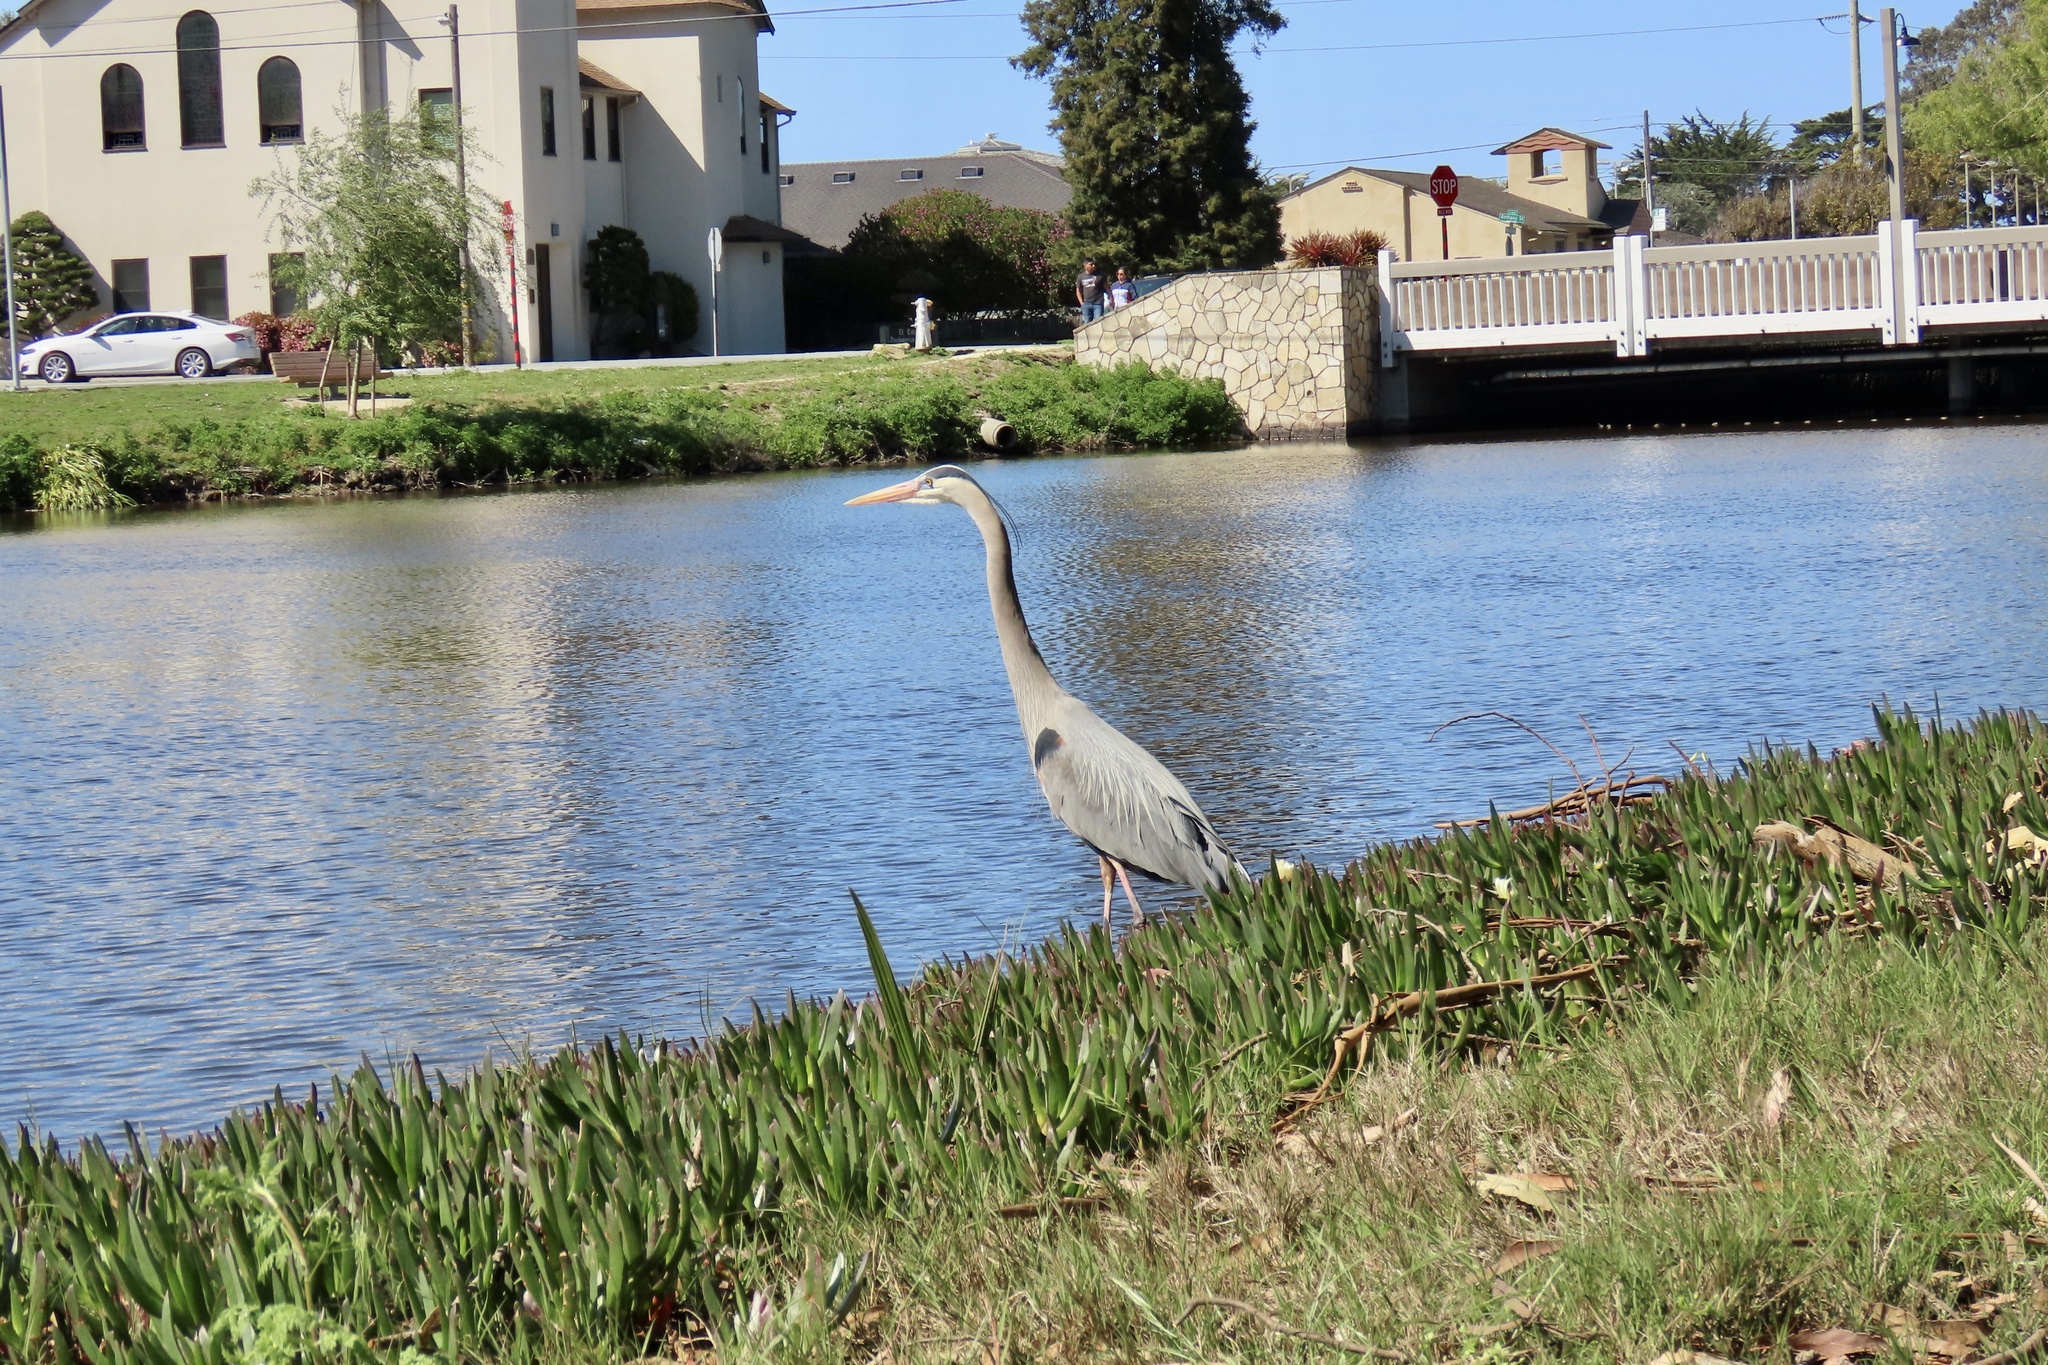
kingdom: Animalia
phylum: Chordata
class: Aves
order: Pelecaniformes
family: Ardeidae
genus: Ardea
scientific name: Ardea herodias
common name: Great blue heron
